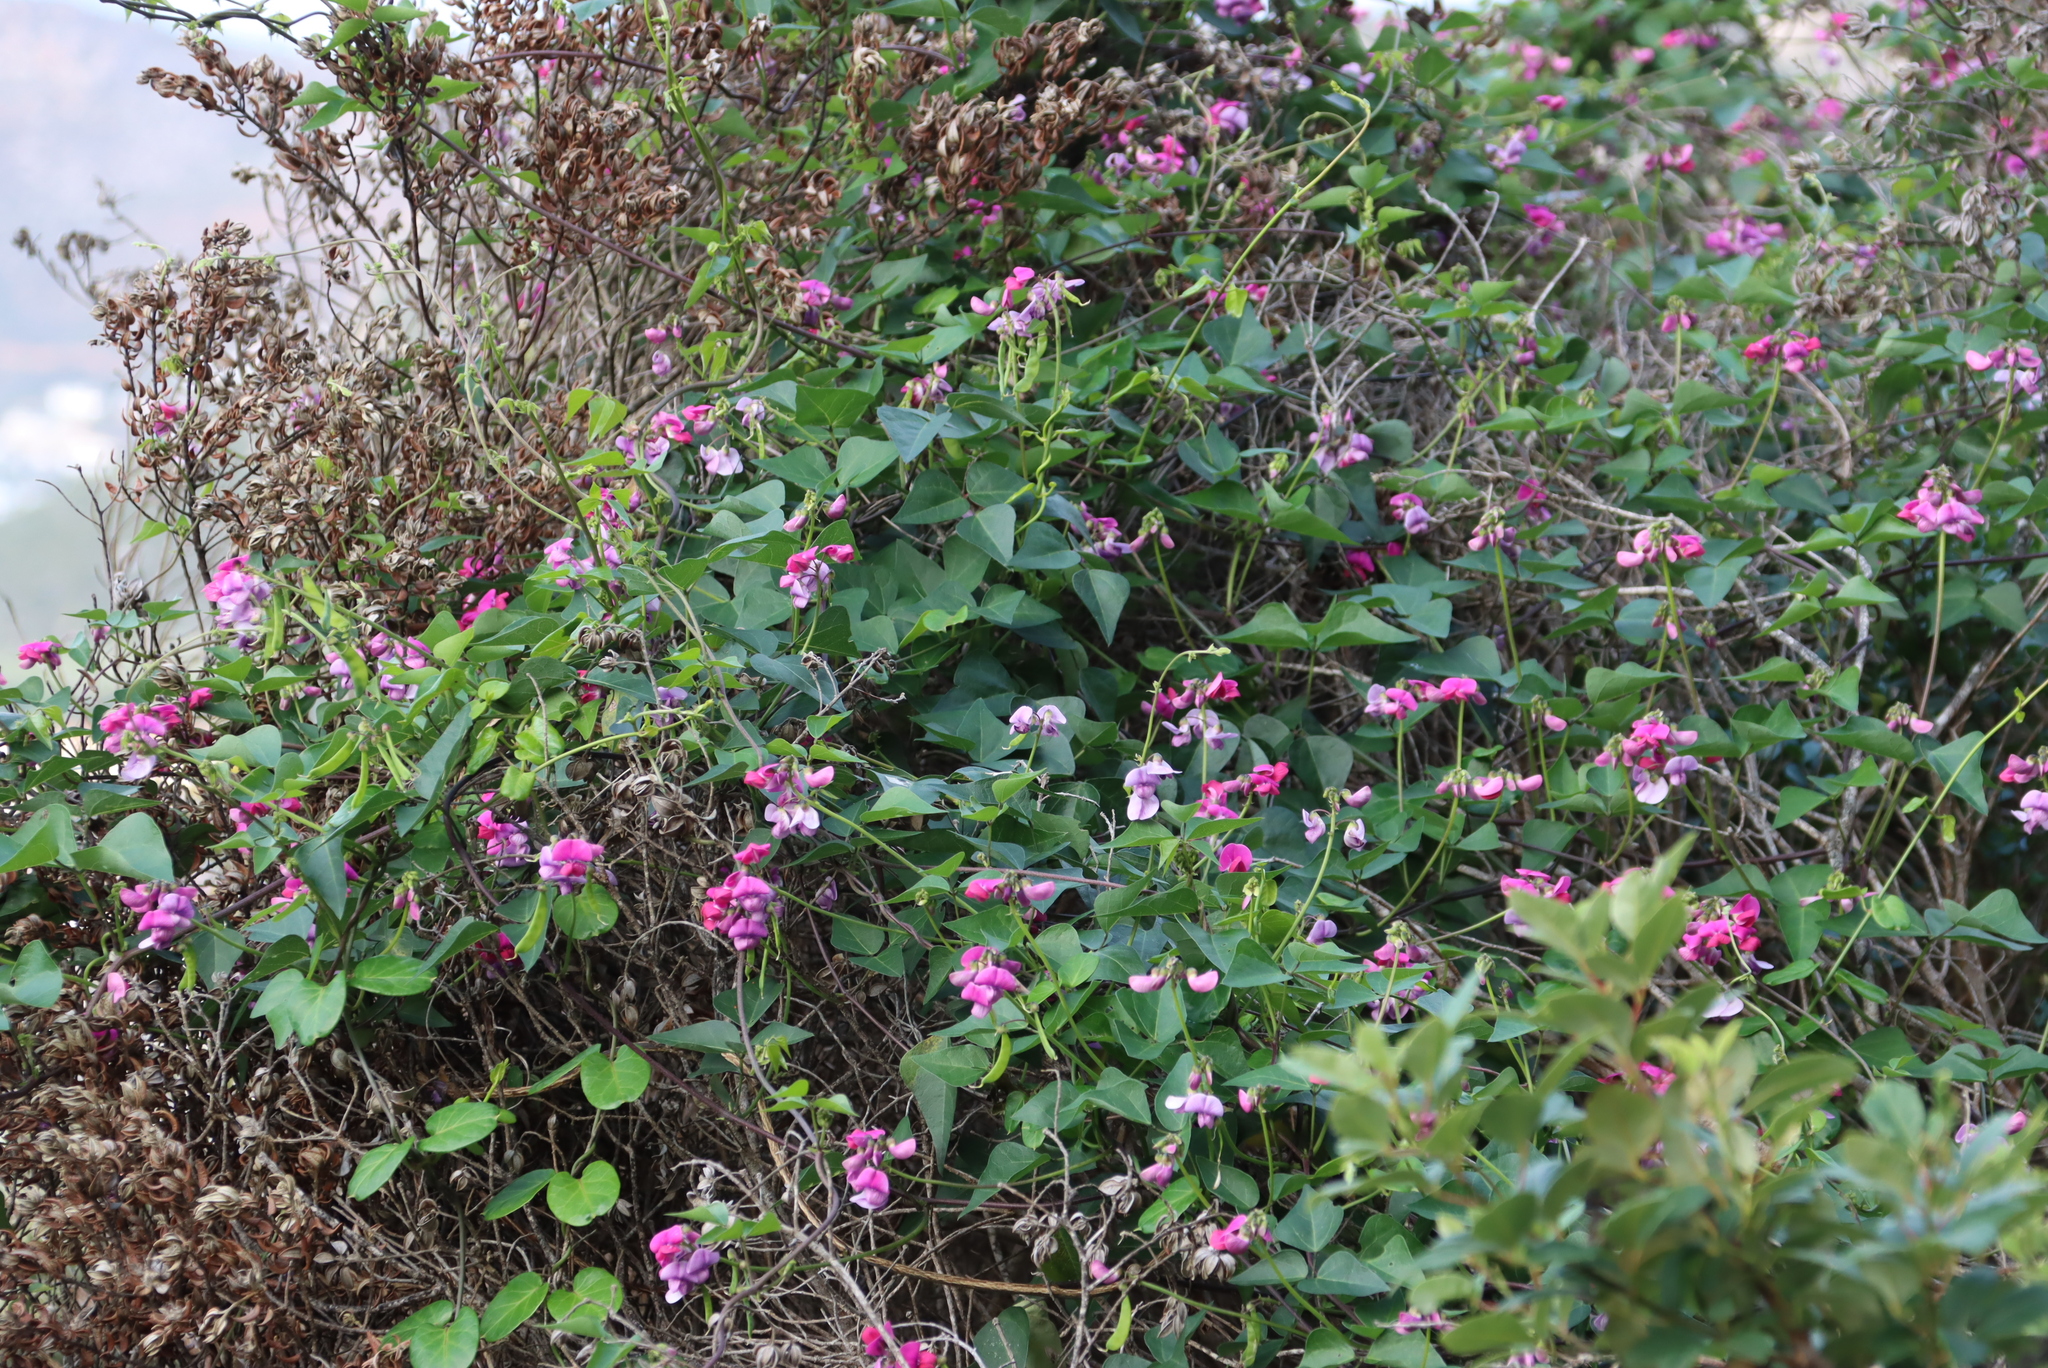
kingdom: Plantae
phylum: Tracheophyta
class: Magnoliopsida
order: Fabales
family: Fabaceae
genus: Dipogon
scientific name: Dipogon lignosus
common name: Okie bean
